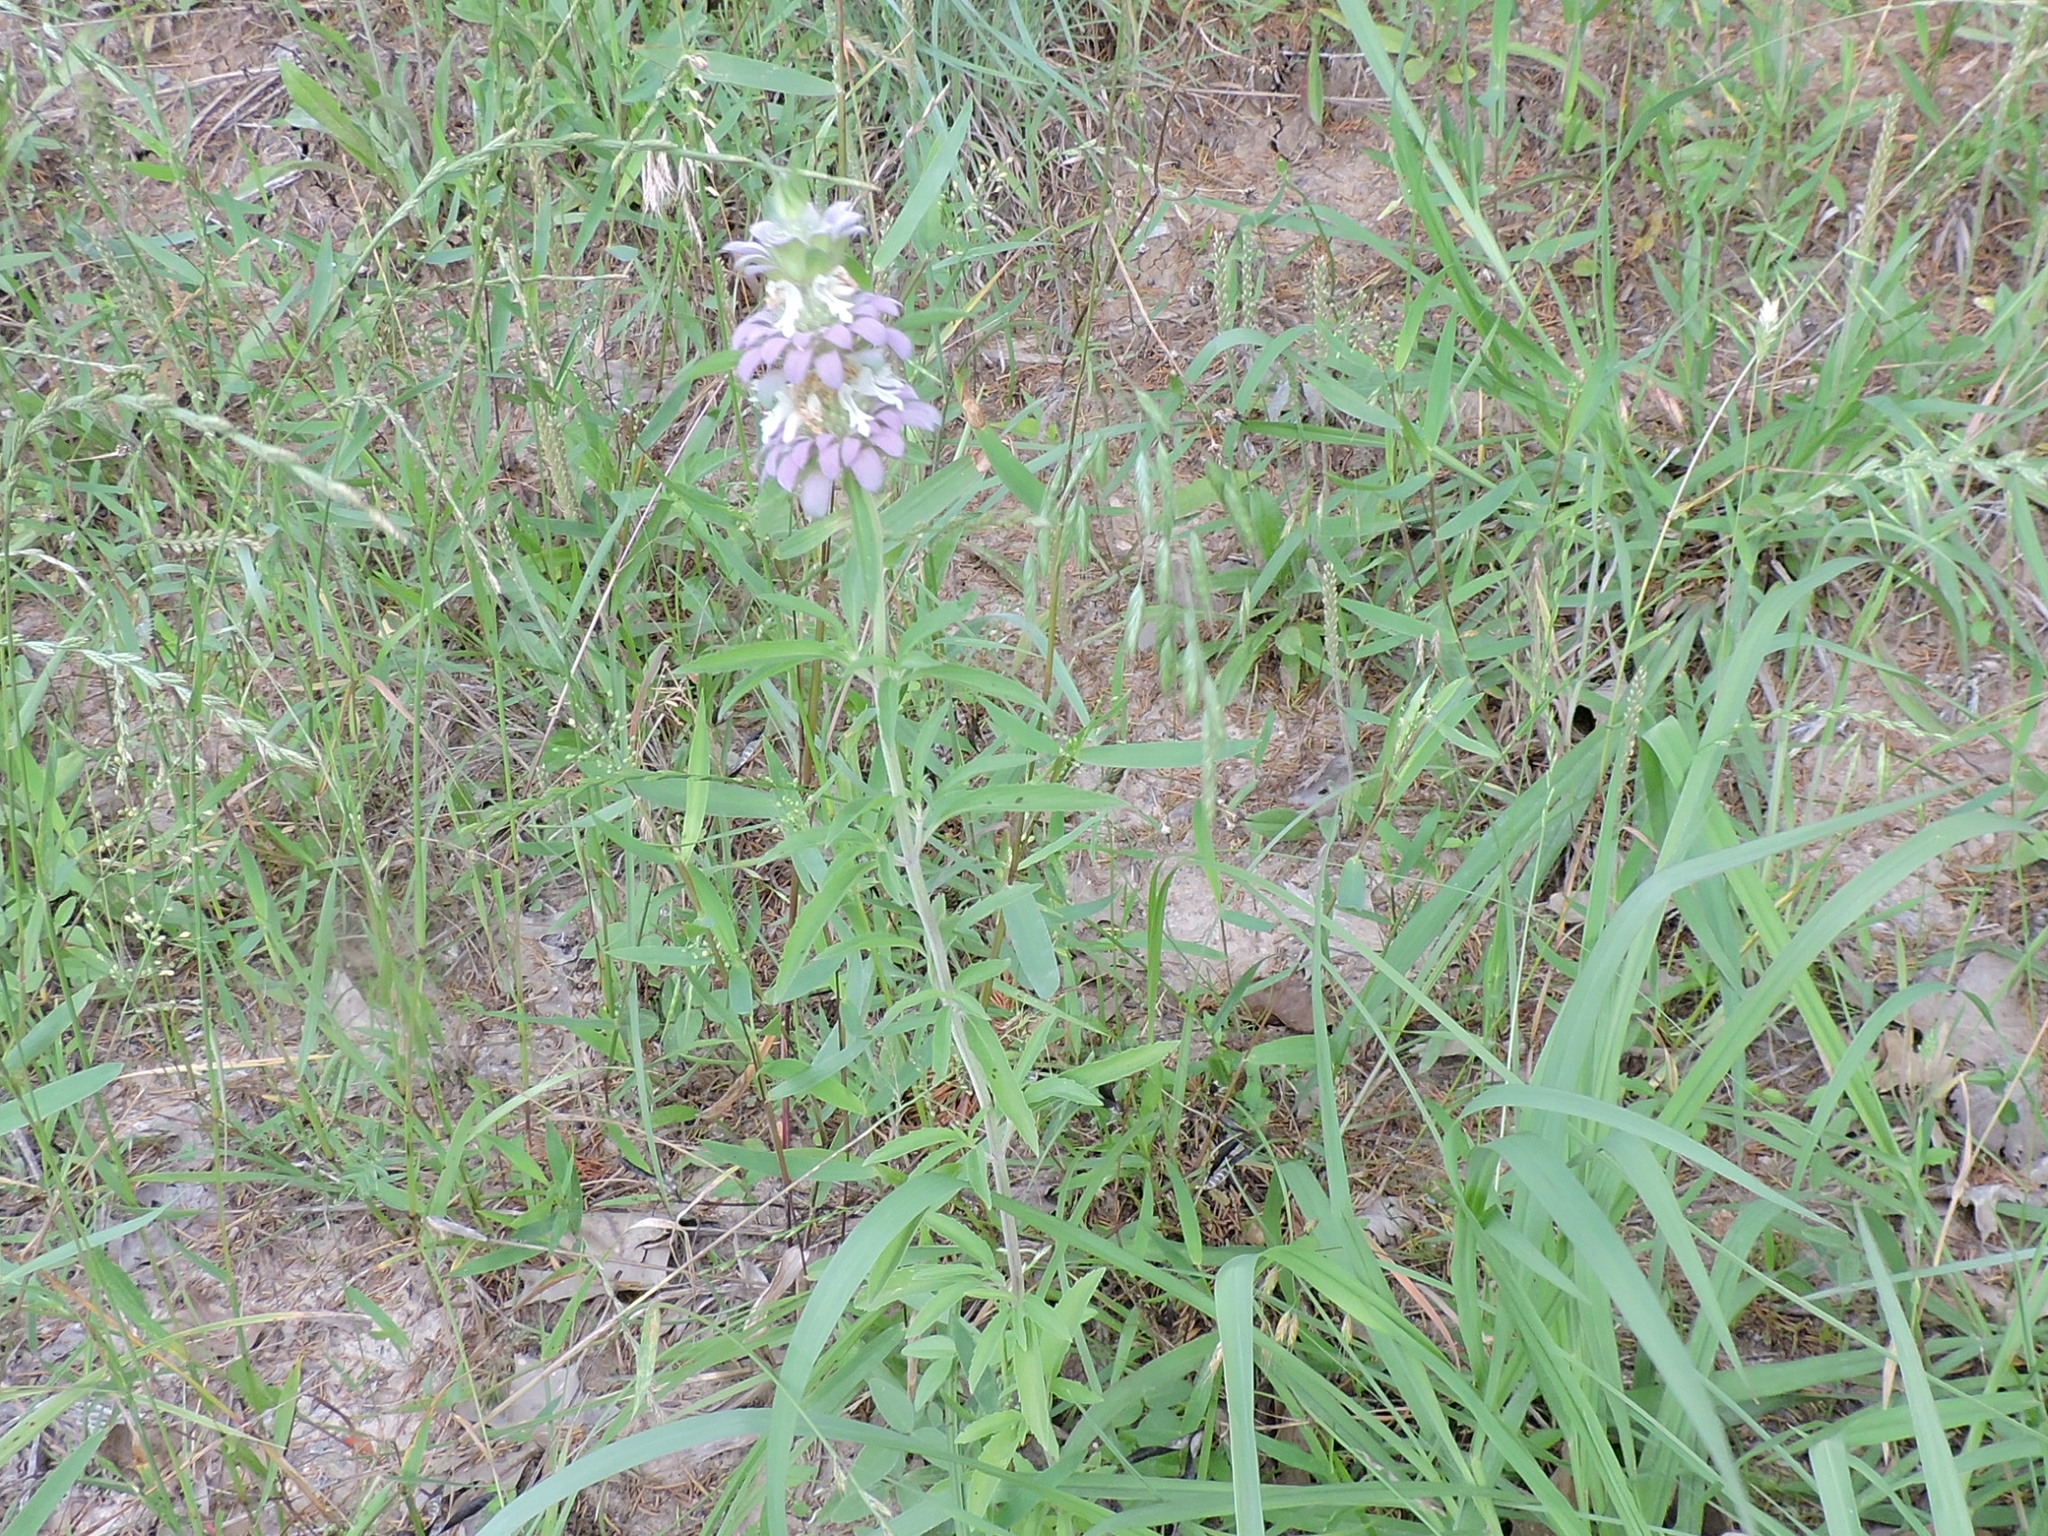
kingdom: Plantae
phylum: Tracheophyta
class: Magnoliopsida
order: Lamiales
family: Lamiaceae
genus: Monarda
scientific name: Monarda citriodora
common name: Lemon beebalm
